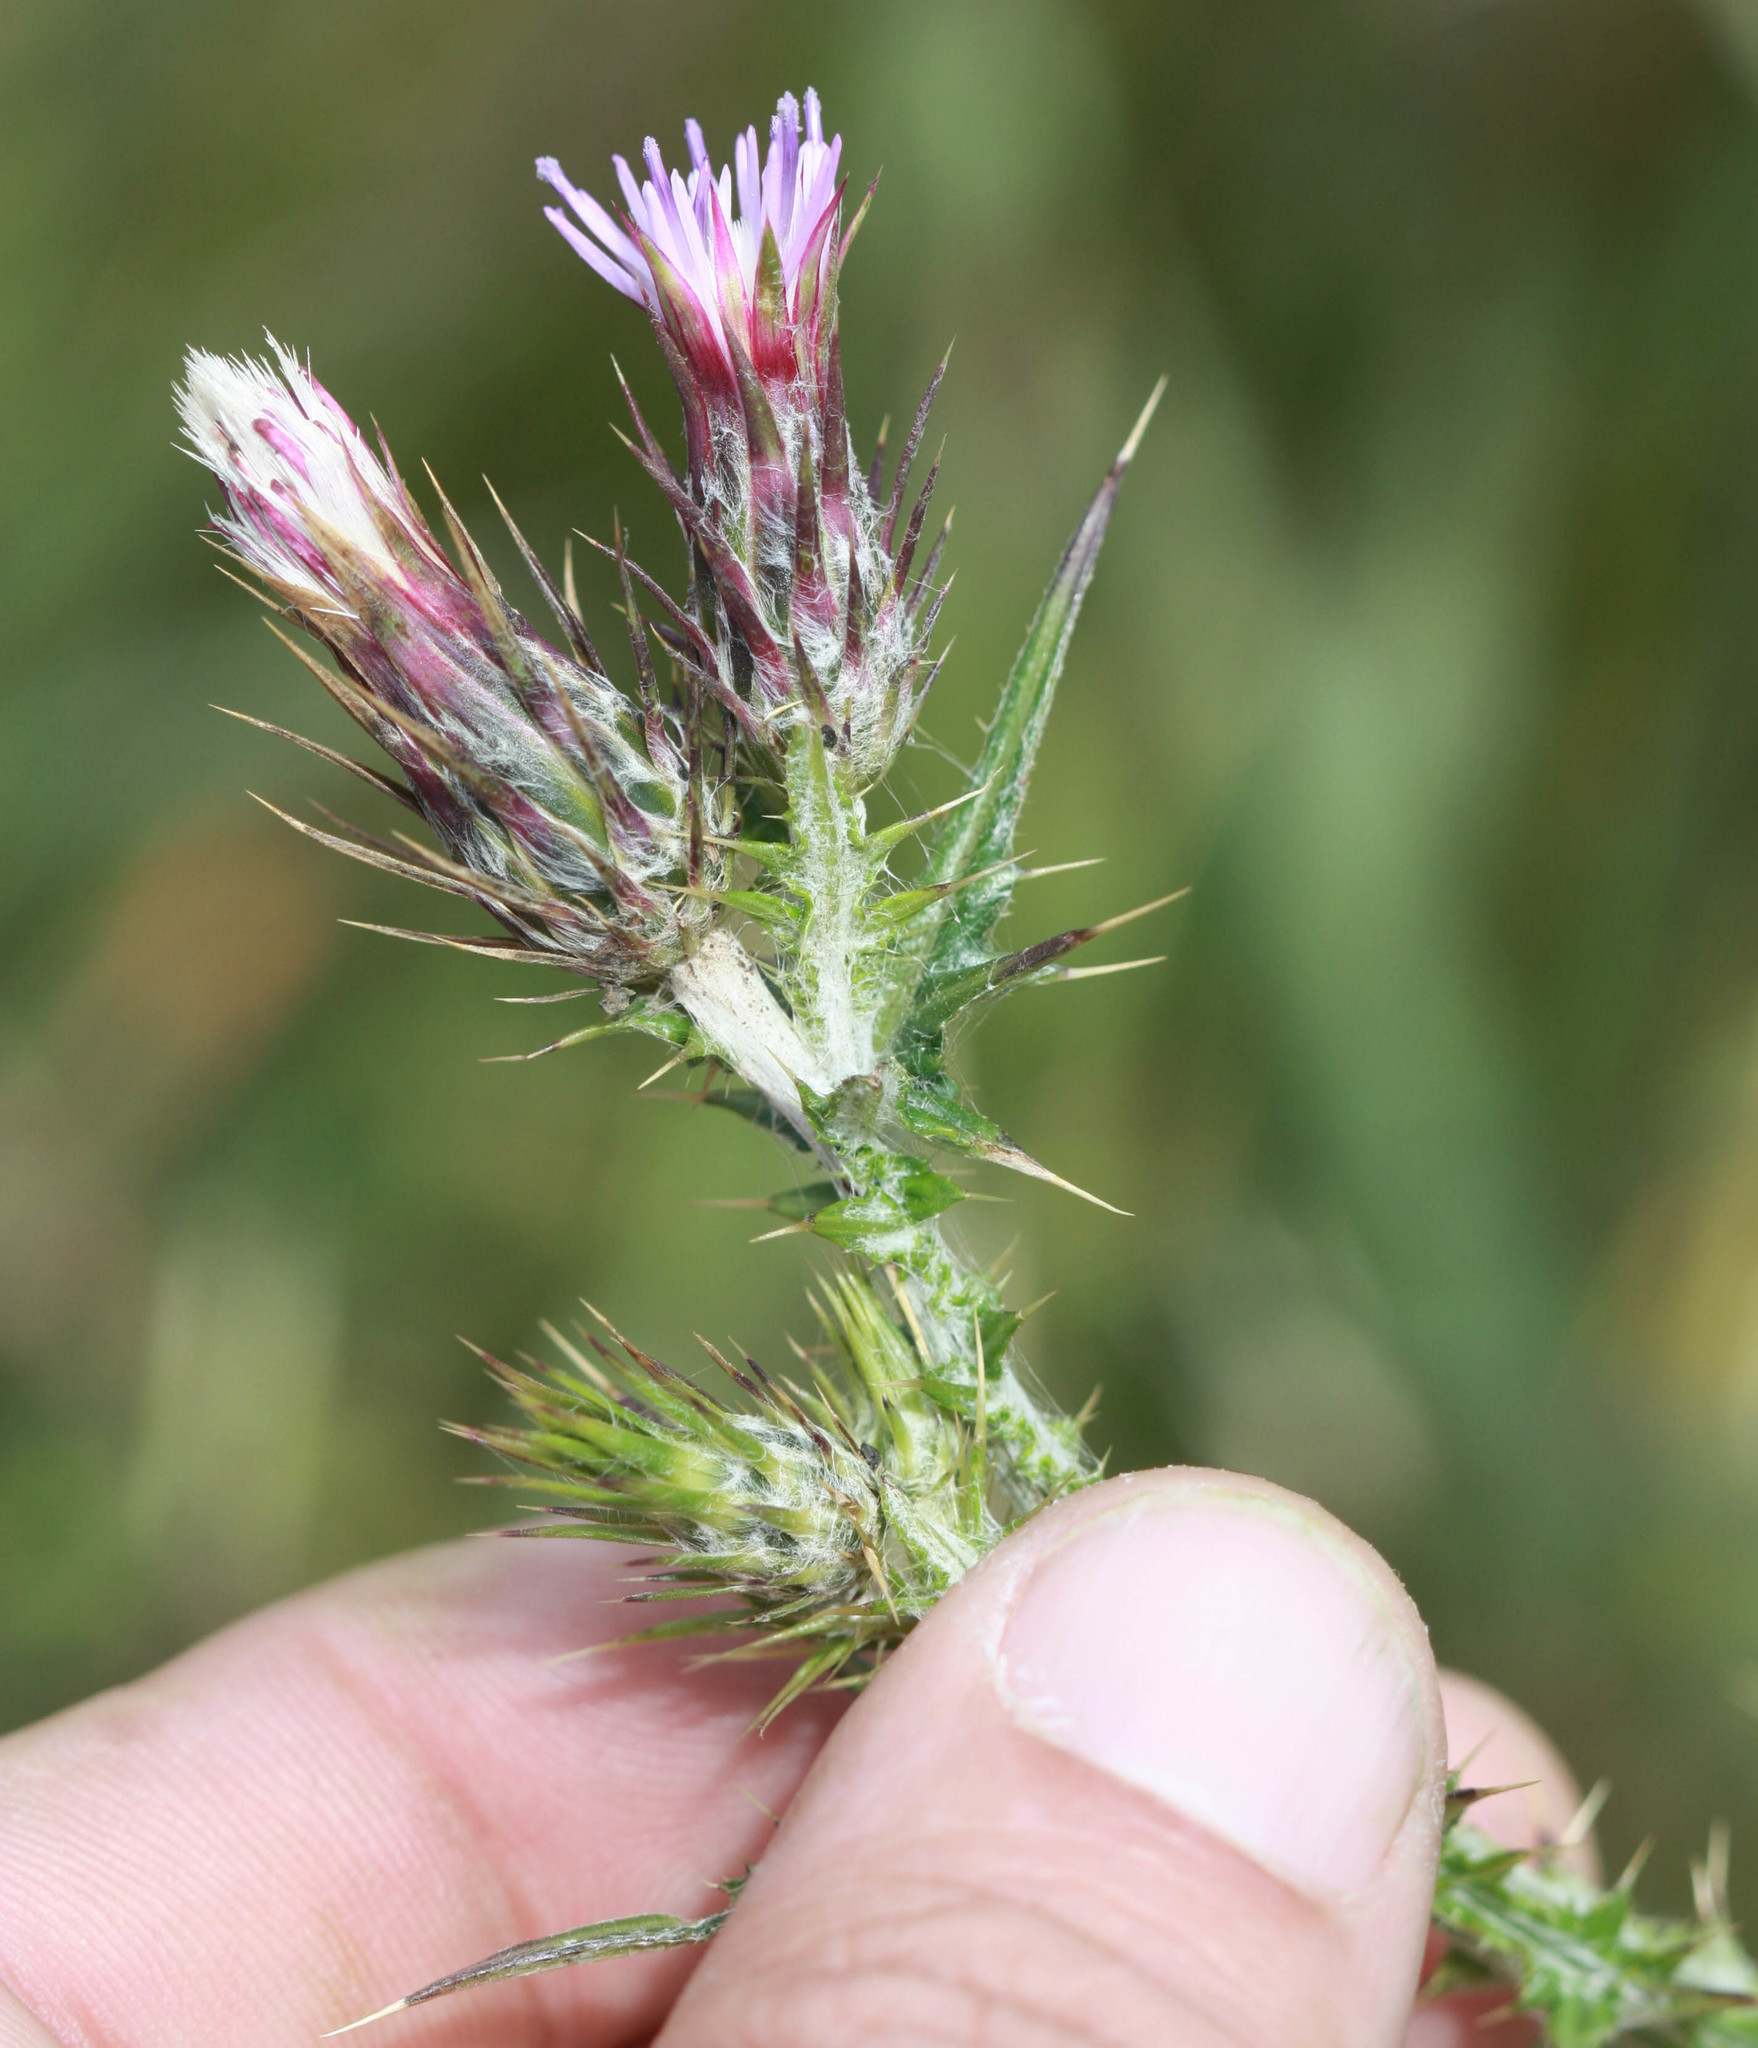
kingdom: Plantae
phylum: Tracheophyta
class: Magnoliopsida
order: Asterales
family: Asteraceae
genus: Carduus
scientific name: Carduus pycnocephalus
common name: Plymouth thistle
